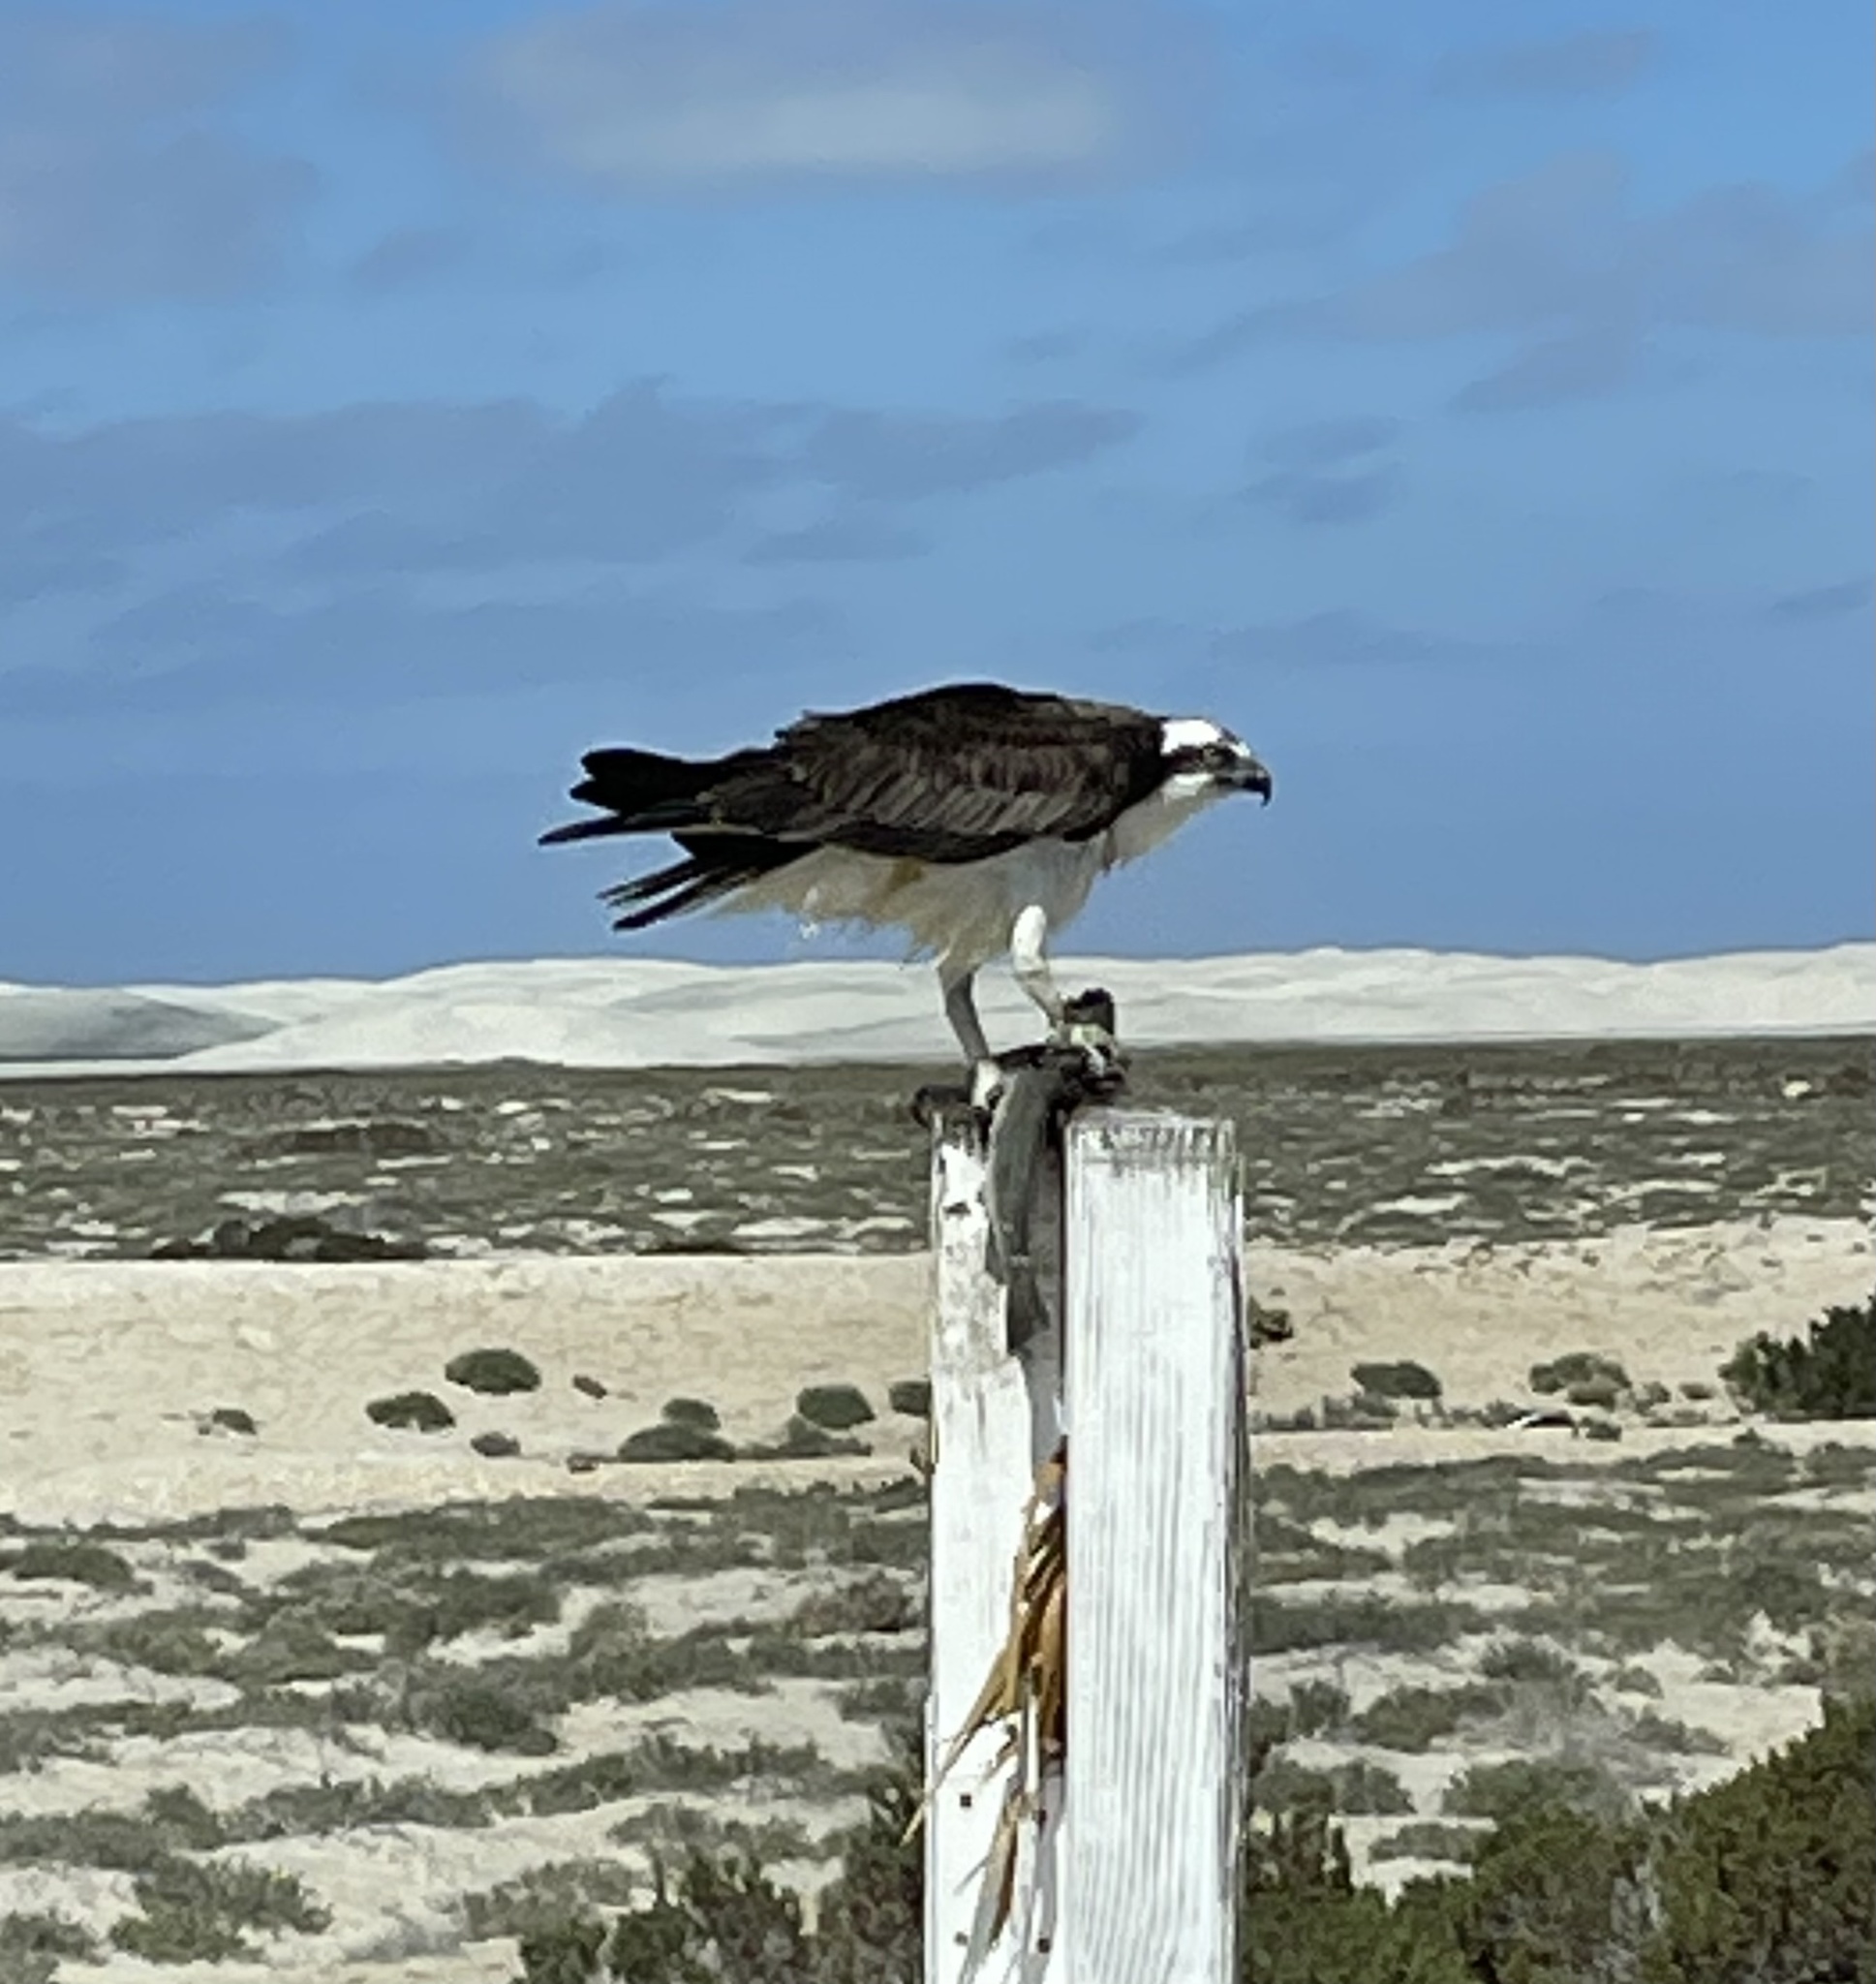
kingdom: Animalia
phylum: Chordata
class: Aves
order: Accipitriformes
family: Pandionidae
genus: Pandion
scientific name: Pandion haliaetus
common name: Osprey
